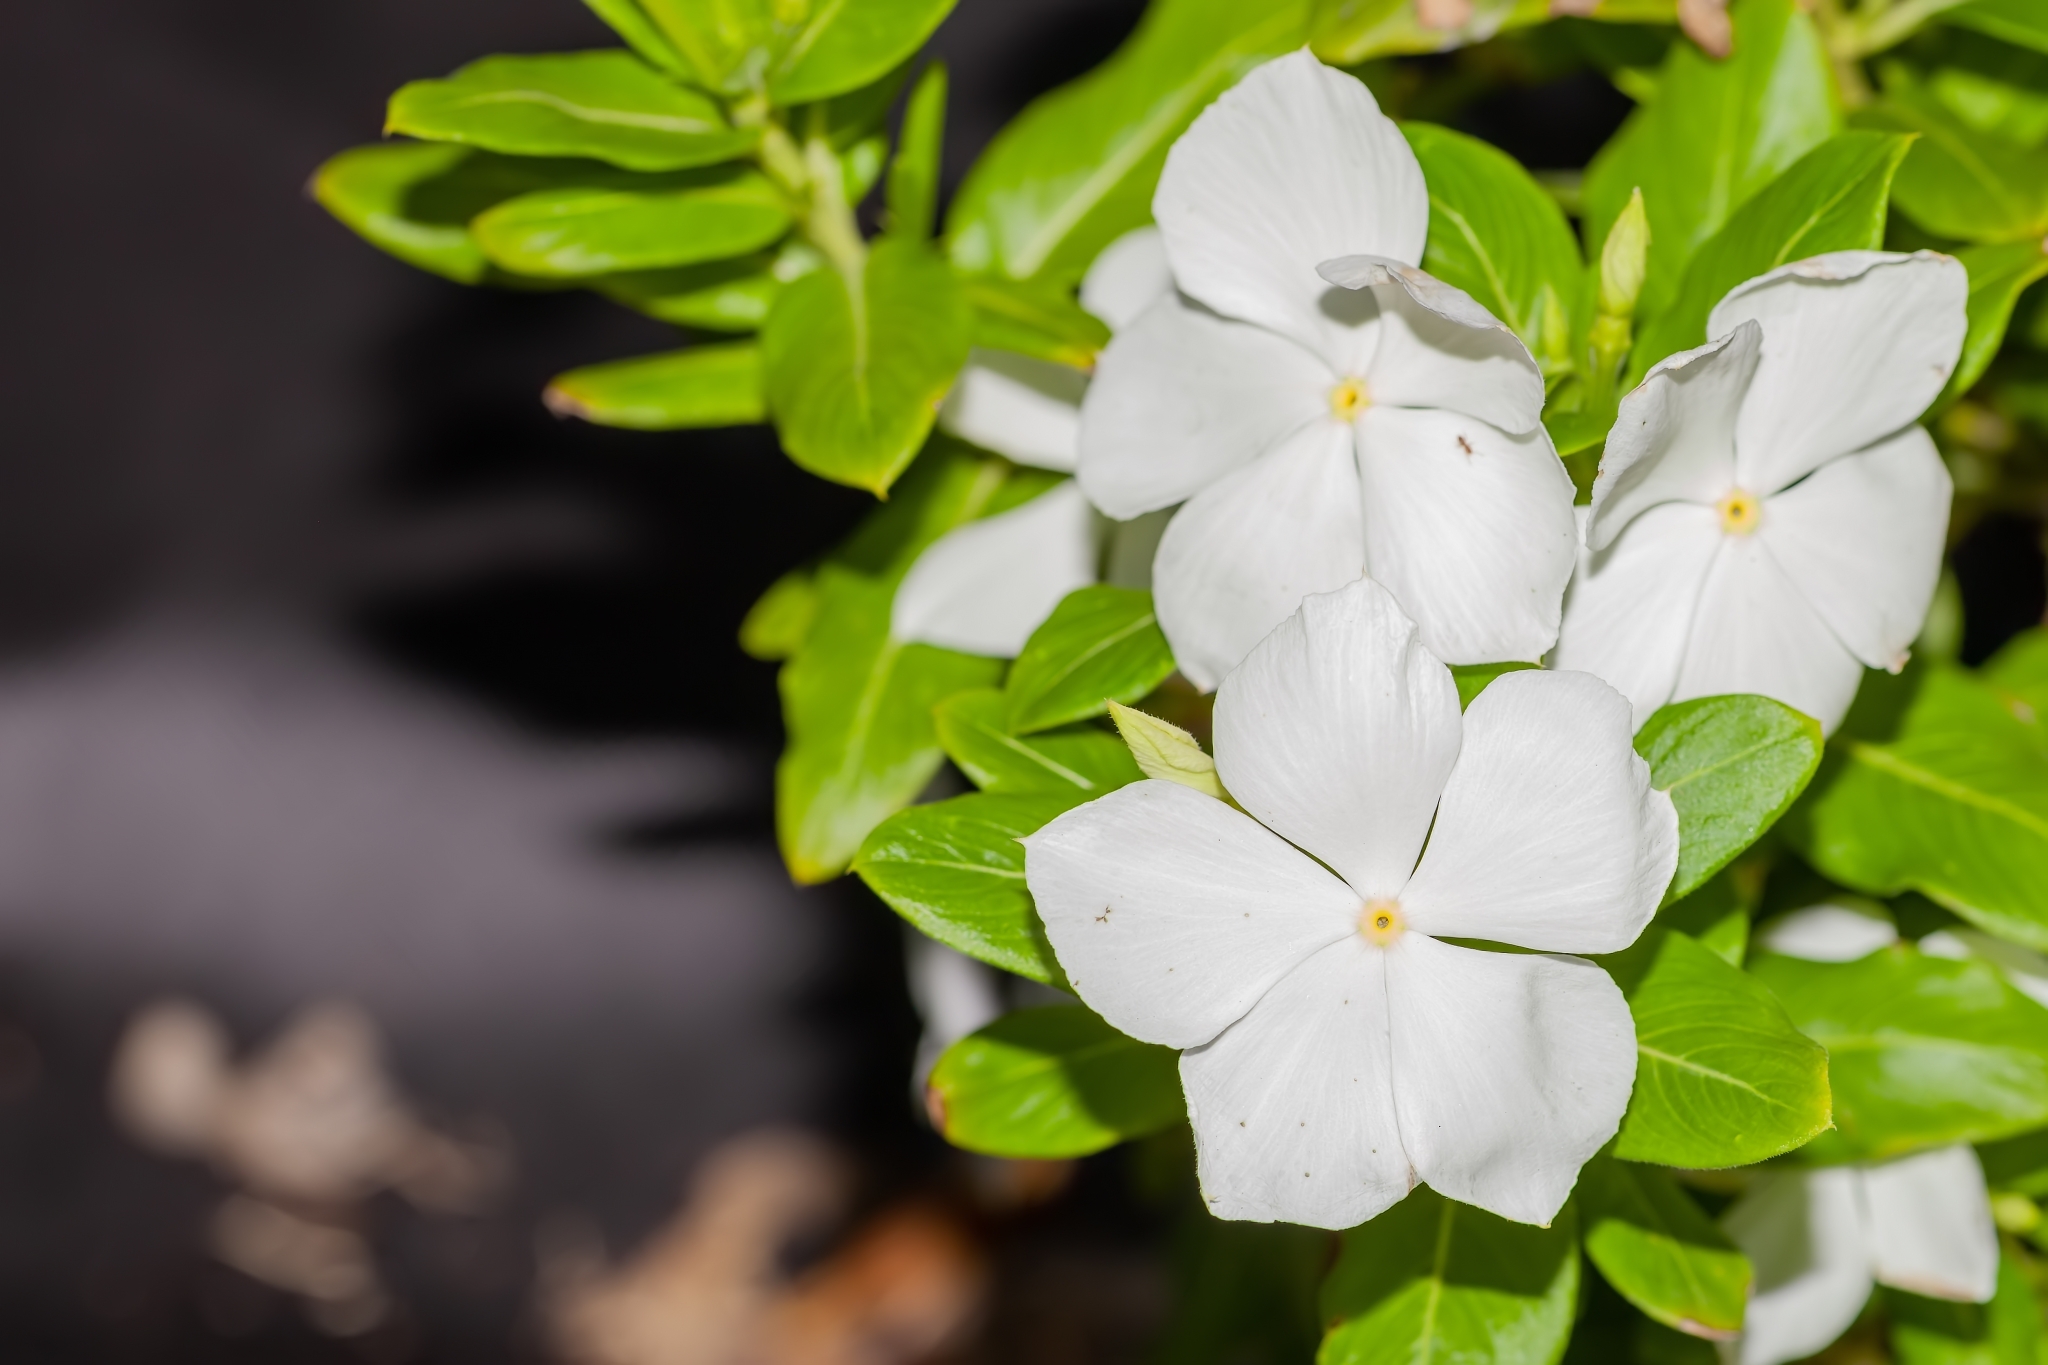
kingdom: Plantae
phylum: Tracheophyta
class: Magnoliopsida
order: Gentianales
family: Apocynaceae
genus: Catharanthus
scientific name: Catharanthus roseus
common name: Madagascar periwinkle
